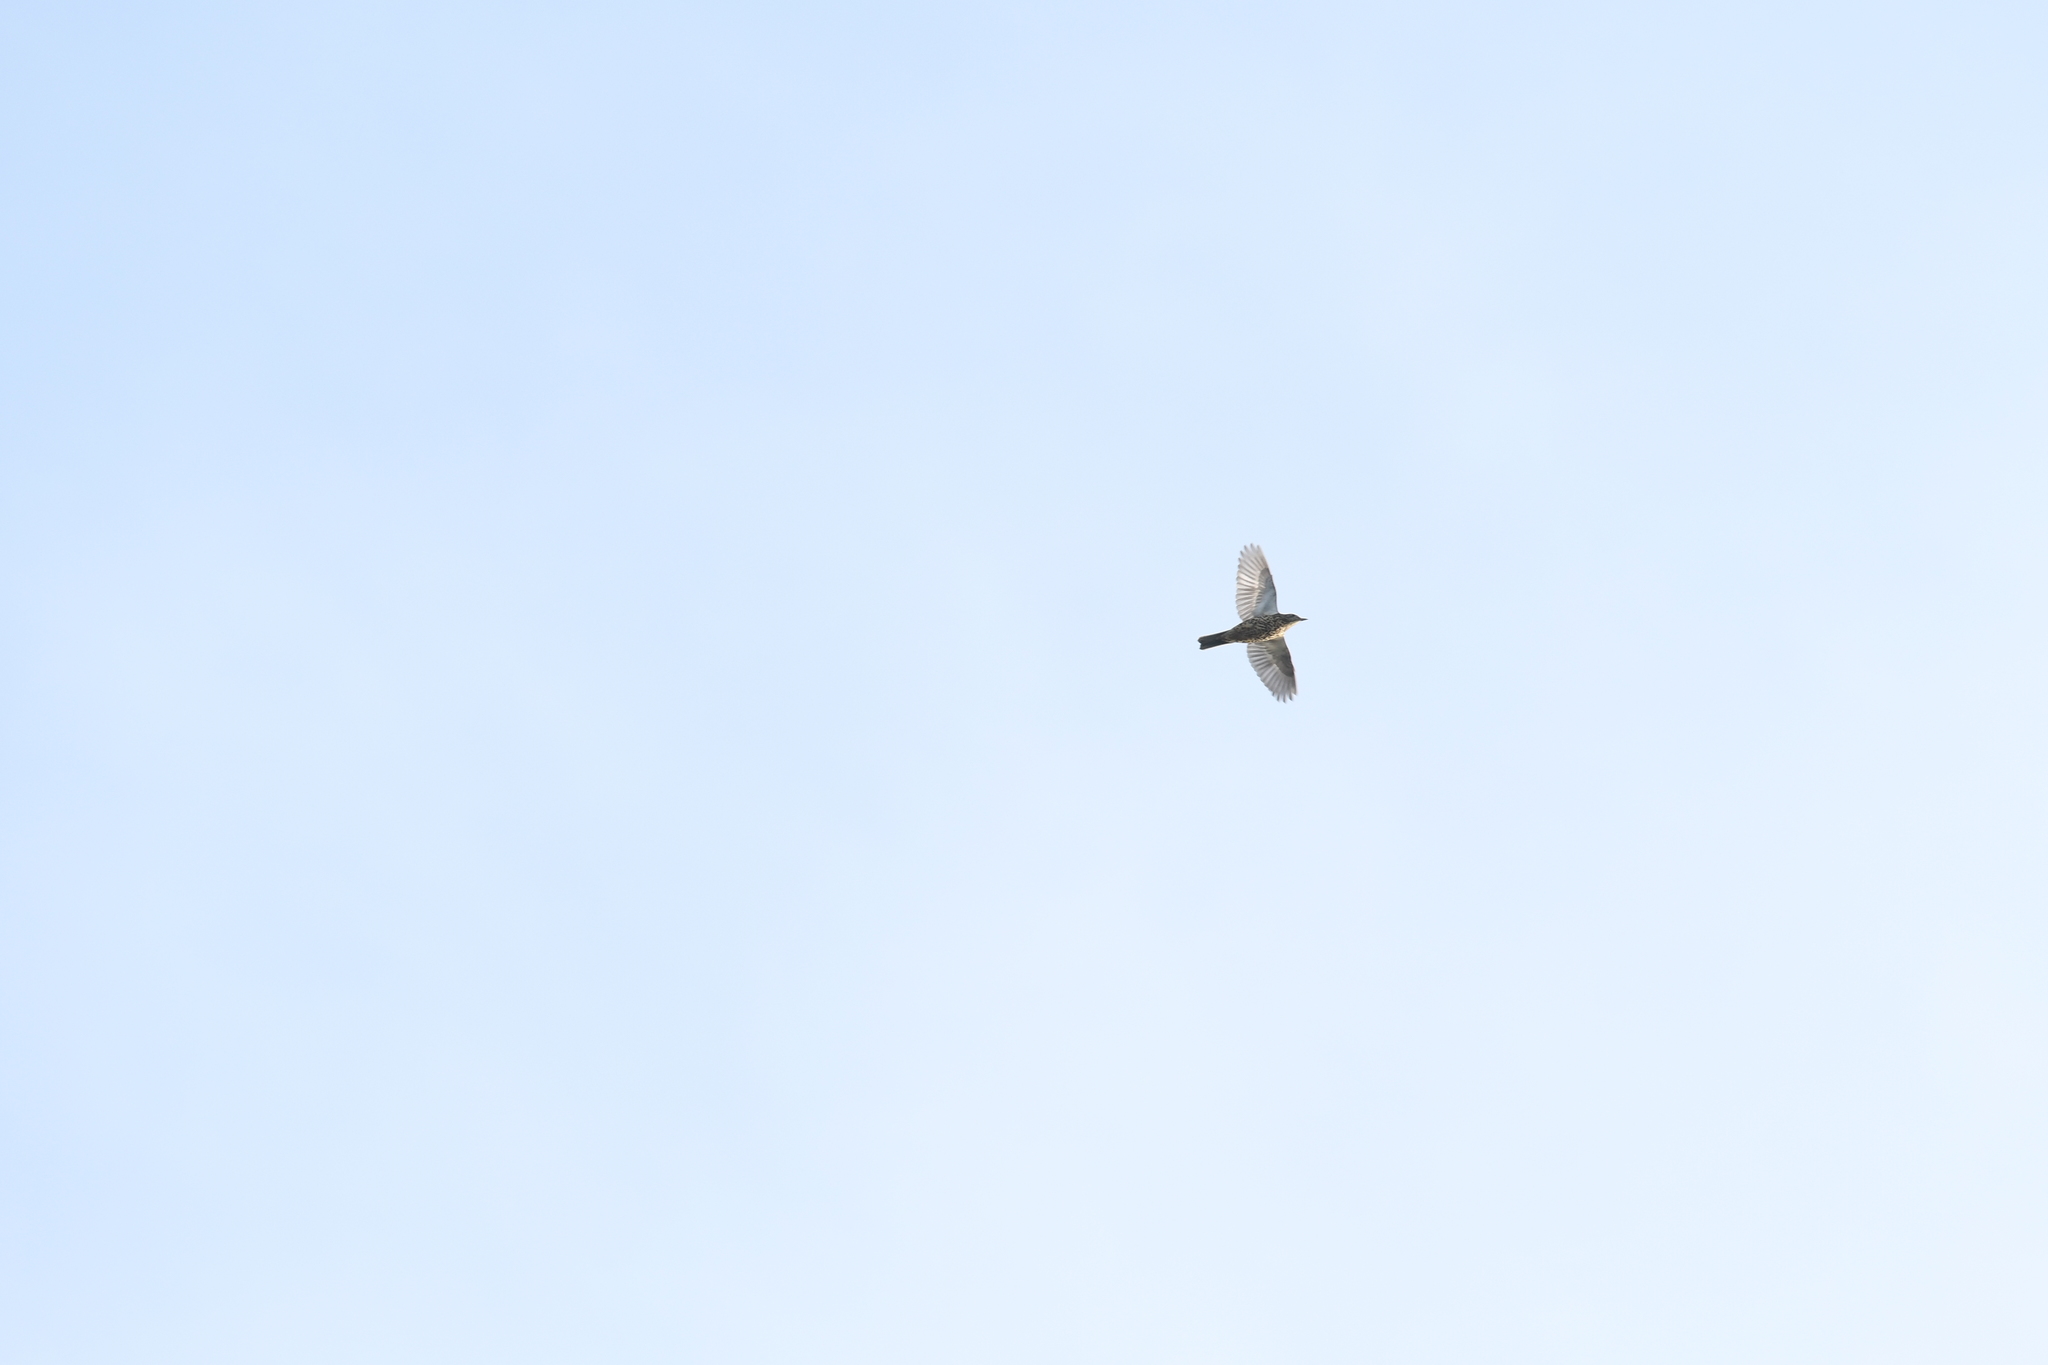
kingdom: Animalia
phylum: Chordata
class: Aves
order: Passeriformes
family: Turdidae
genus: Turdus
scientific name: Turdus viscivorus
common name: Mistle thrush
